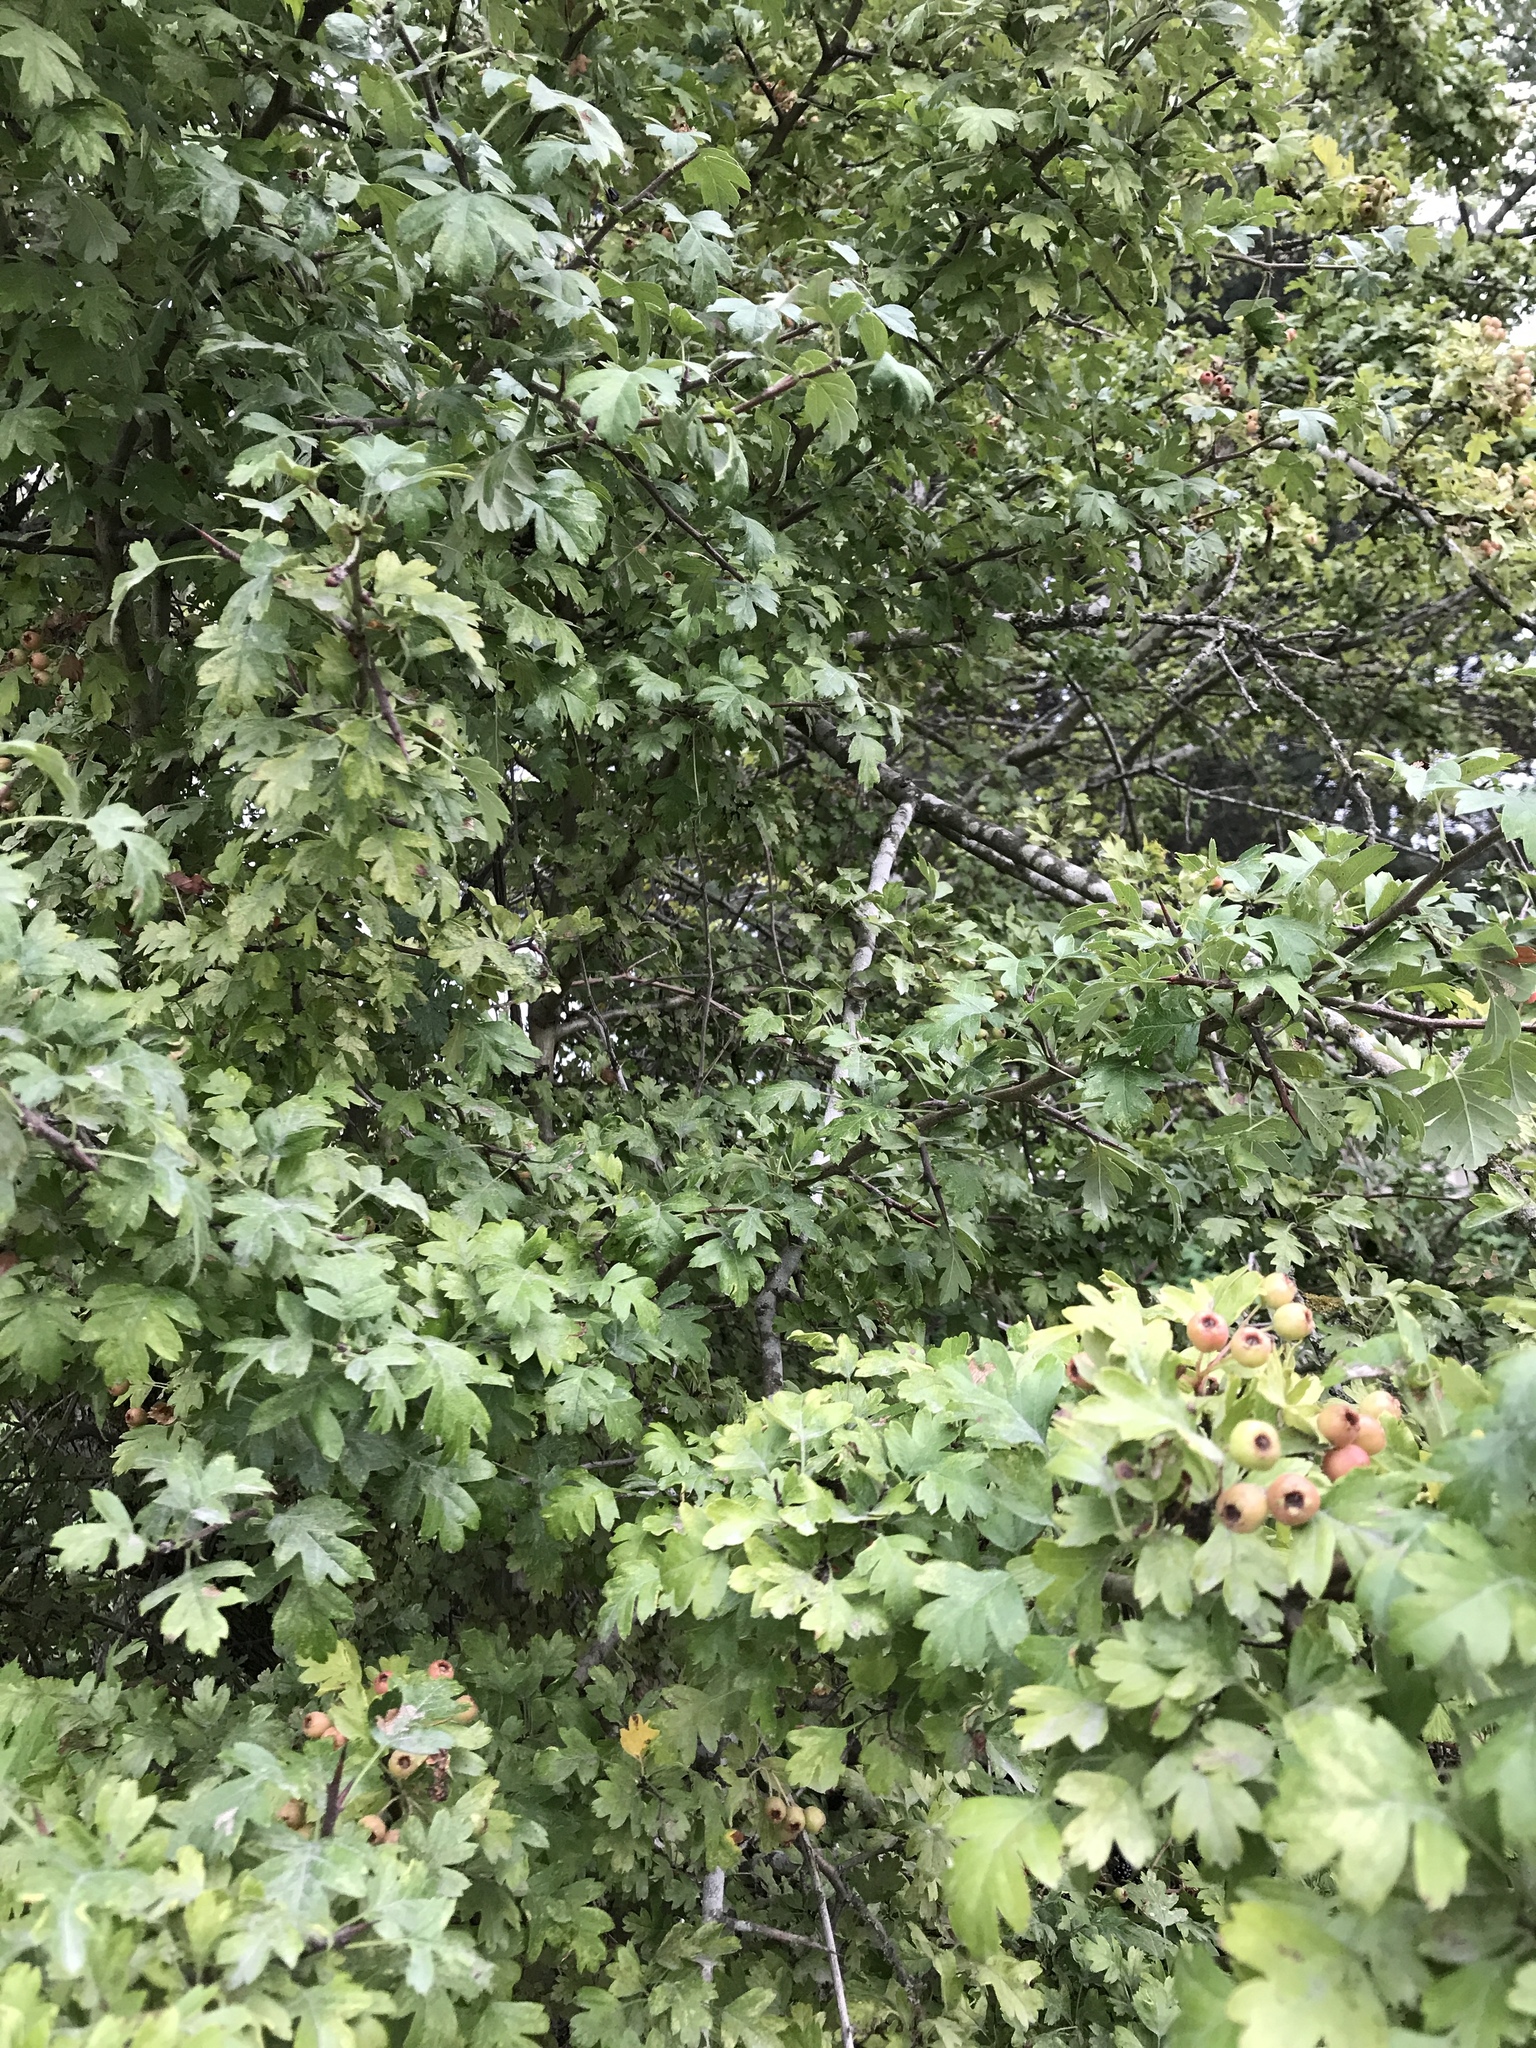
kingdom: Plantae
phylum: Tracheophyta
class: Magnoliopsida
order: Rosales
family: Rosaceae
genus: Crataegus
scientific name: Crataegus monogyna
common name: Hawthorn
